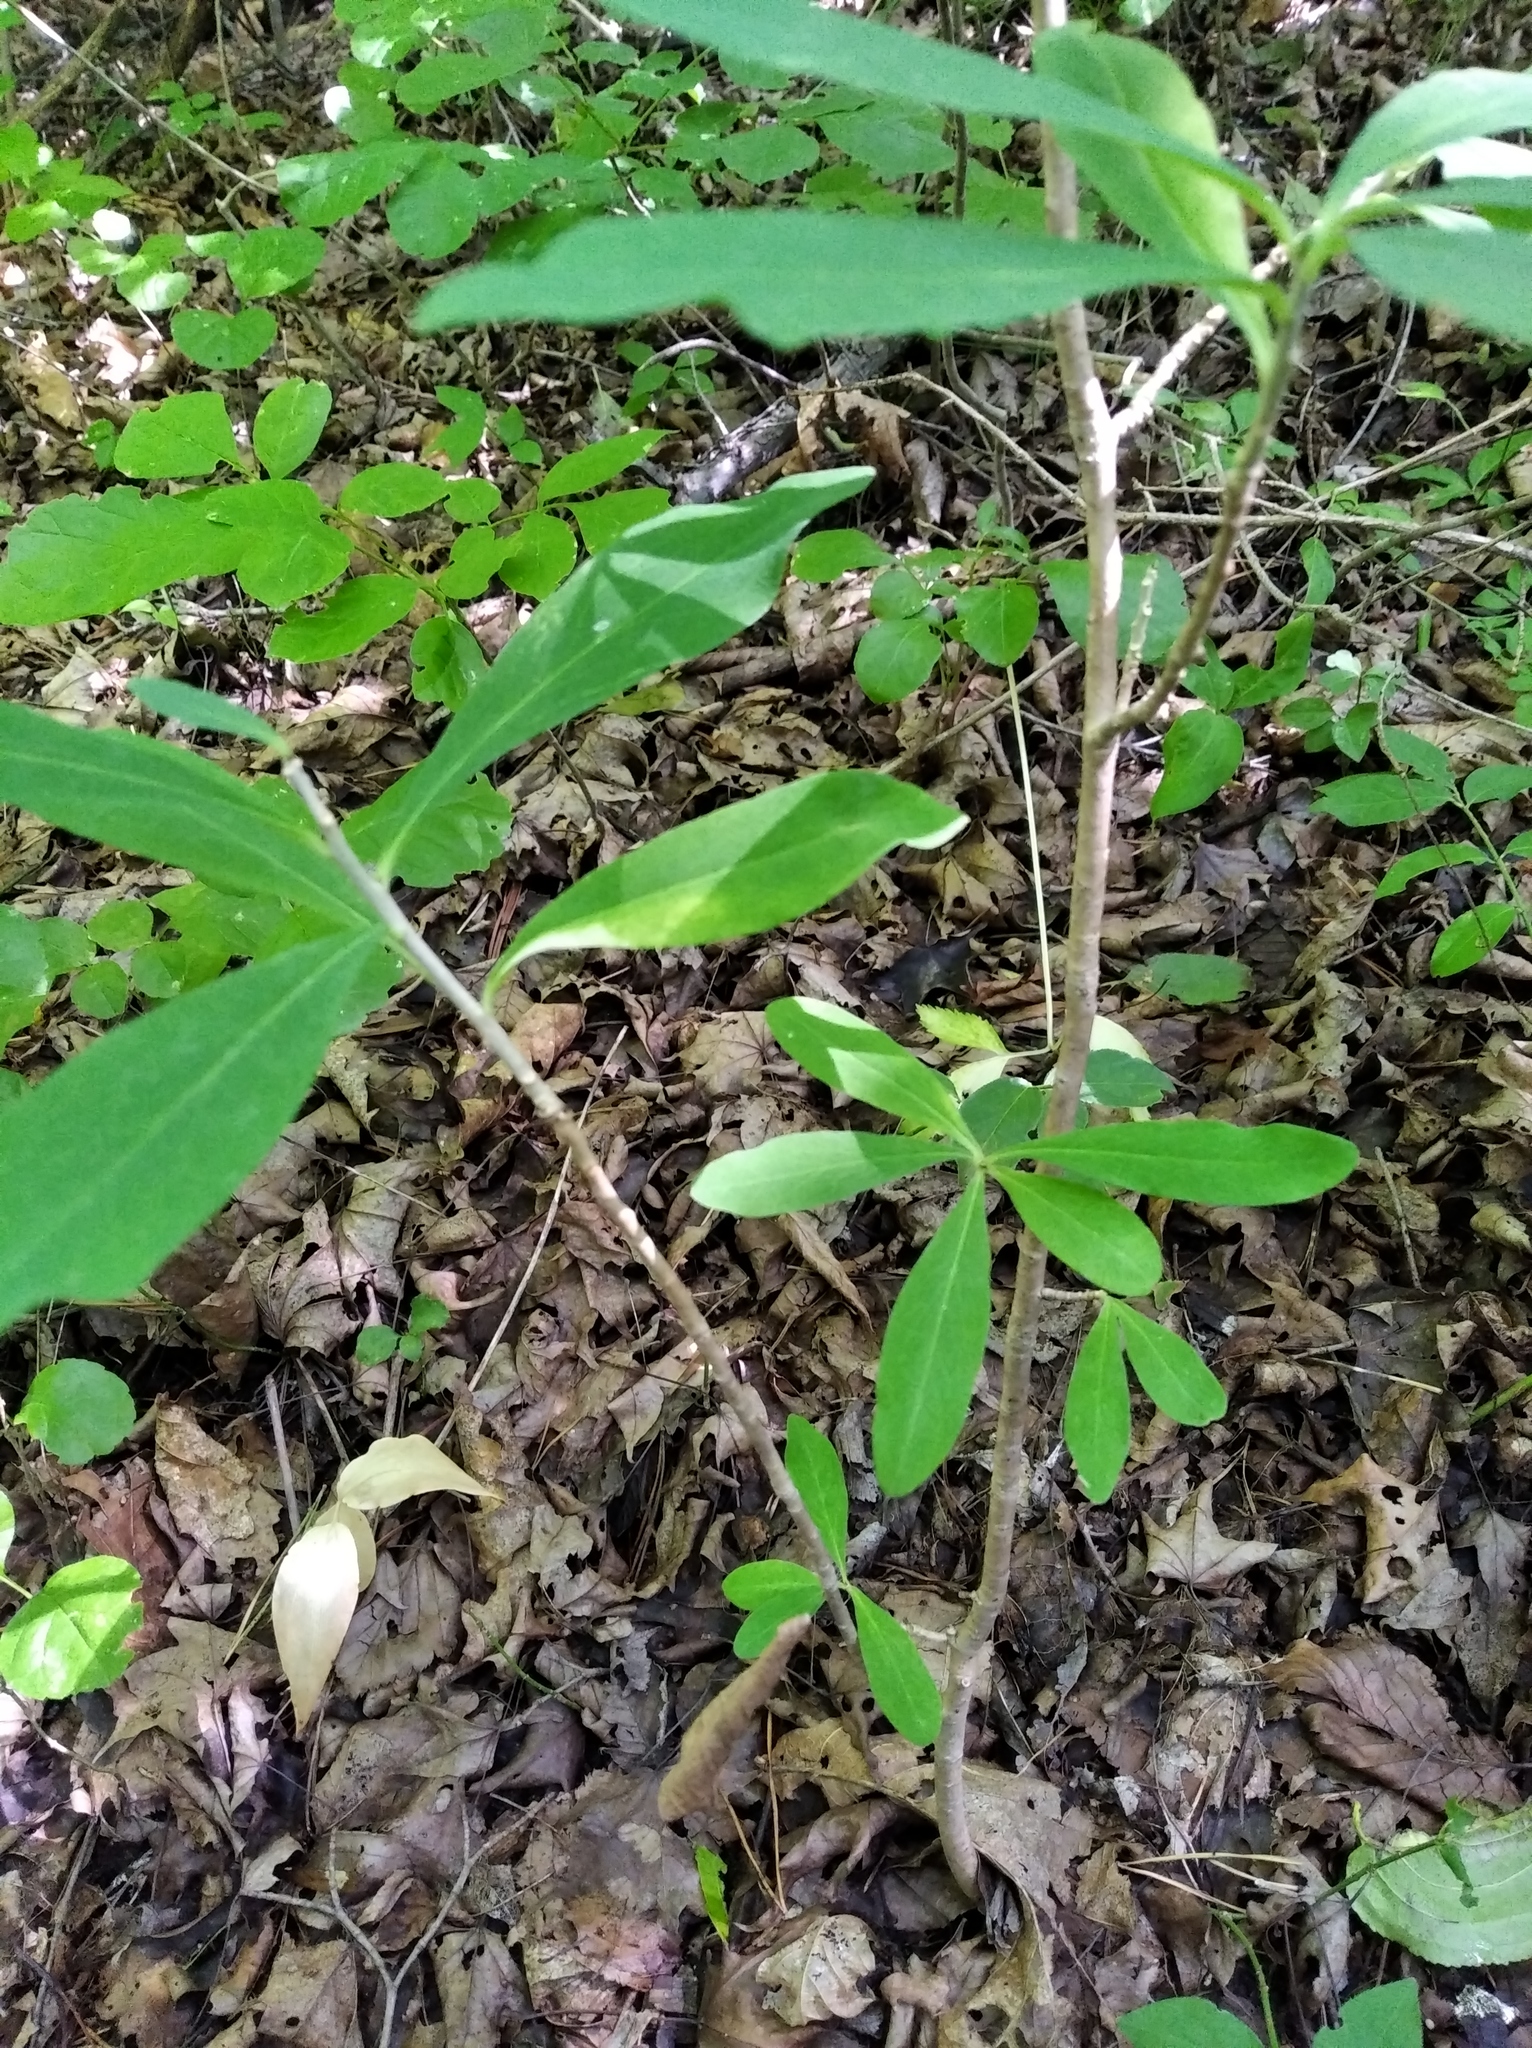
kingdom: Plantae
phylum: Tracheophyta
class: Magnoliopsida
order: Malvales
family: Thymelaeaceae
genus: Daphne
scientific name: Daphne kamtschatica
